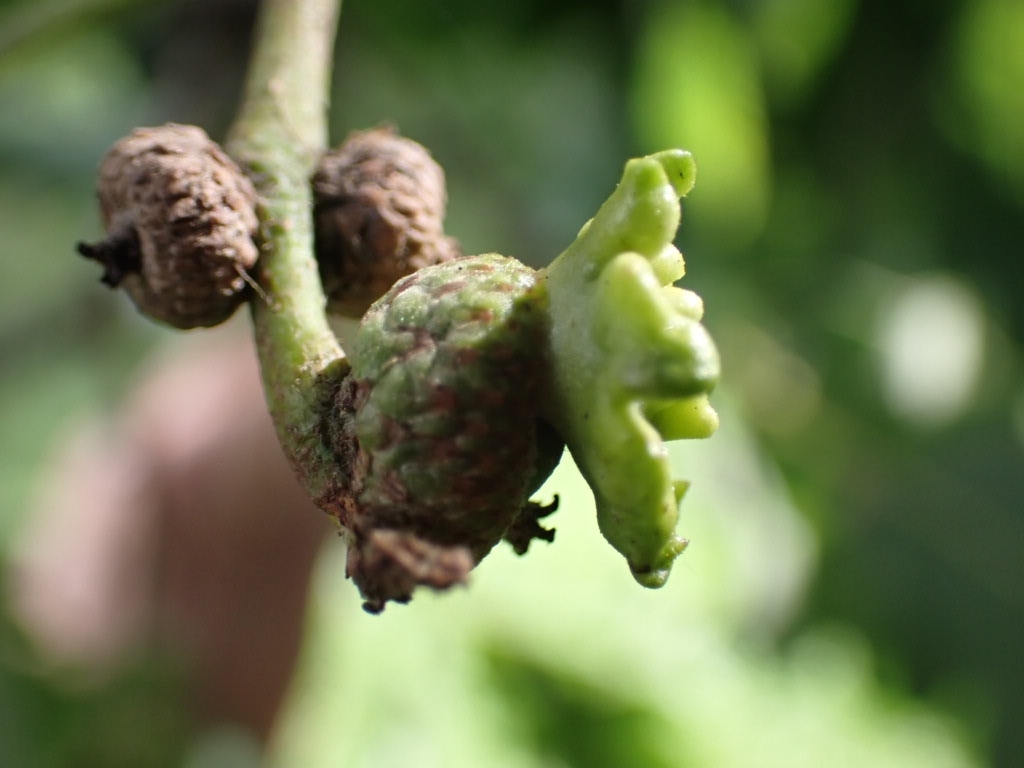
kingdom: Animalia
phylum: Arthropoda
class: Insecta
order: Hymenoptera
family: Cynipidae
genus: Andricus
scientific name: Andricus quercuscalicis
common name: Knopper gall
